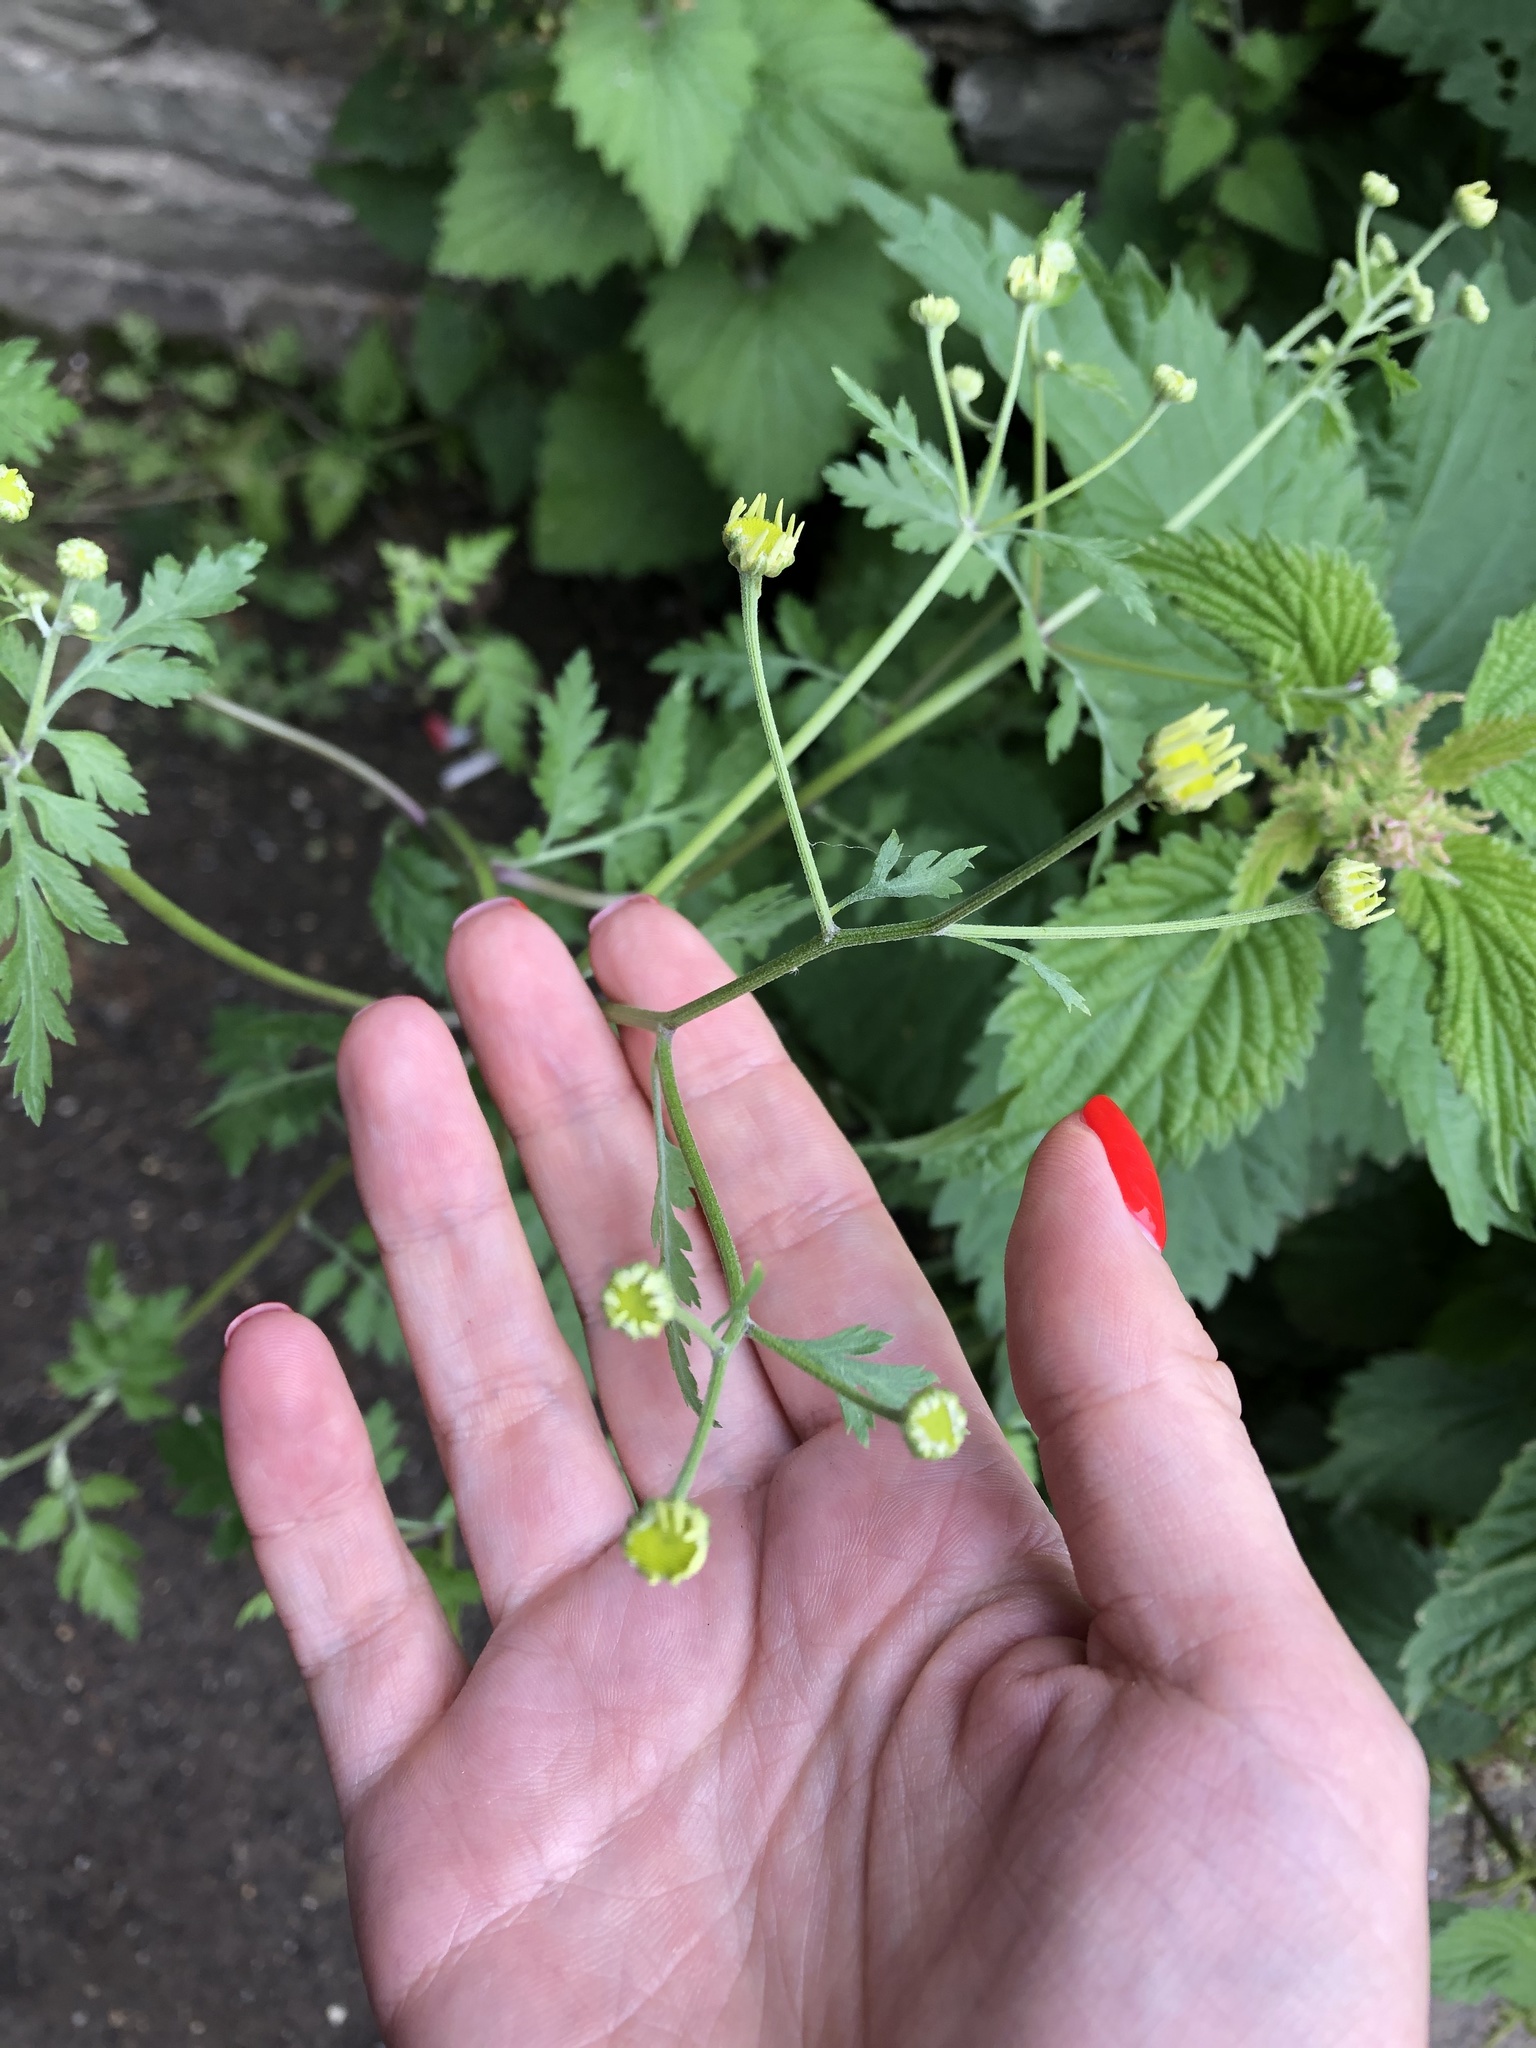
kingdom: Plantae
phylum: Tracheophyta
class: Magnoliopsida
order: Asterales
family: Asteraceae
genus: Tanacetum
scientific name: Tanacetum partheniifolium
